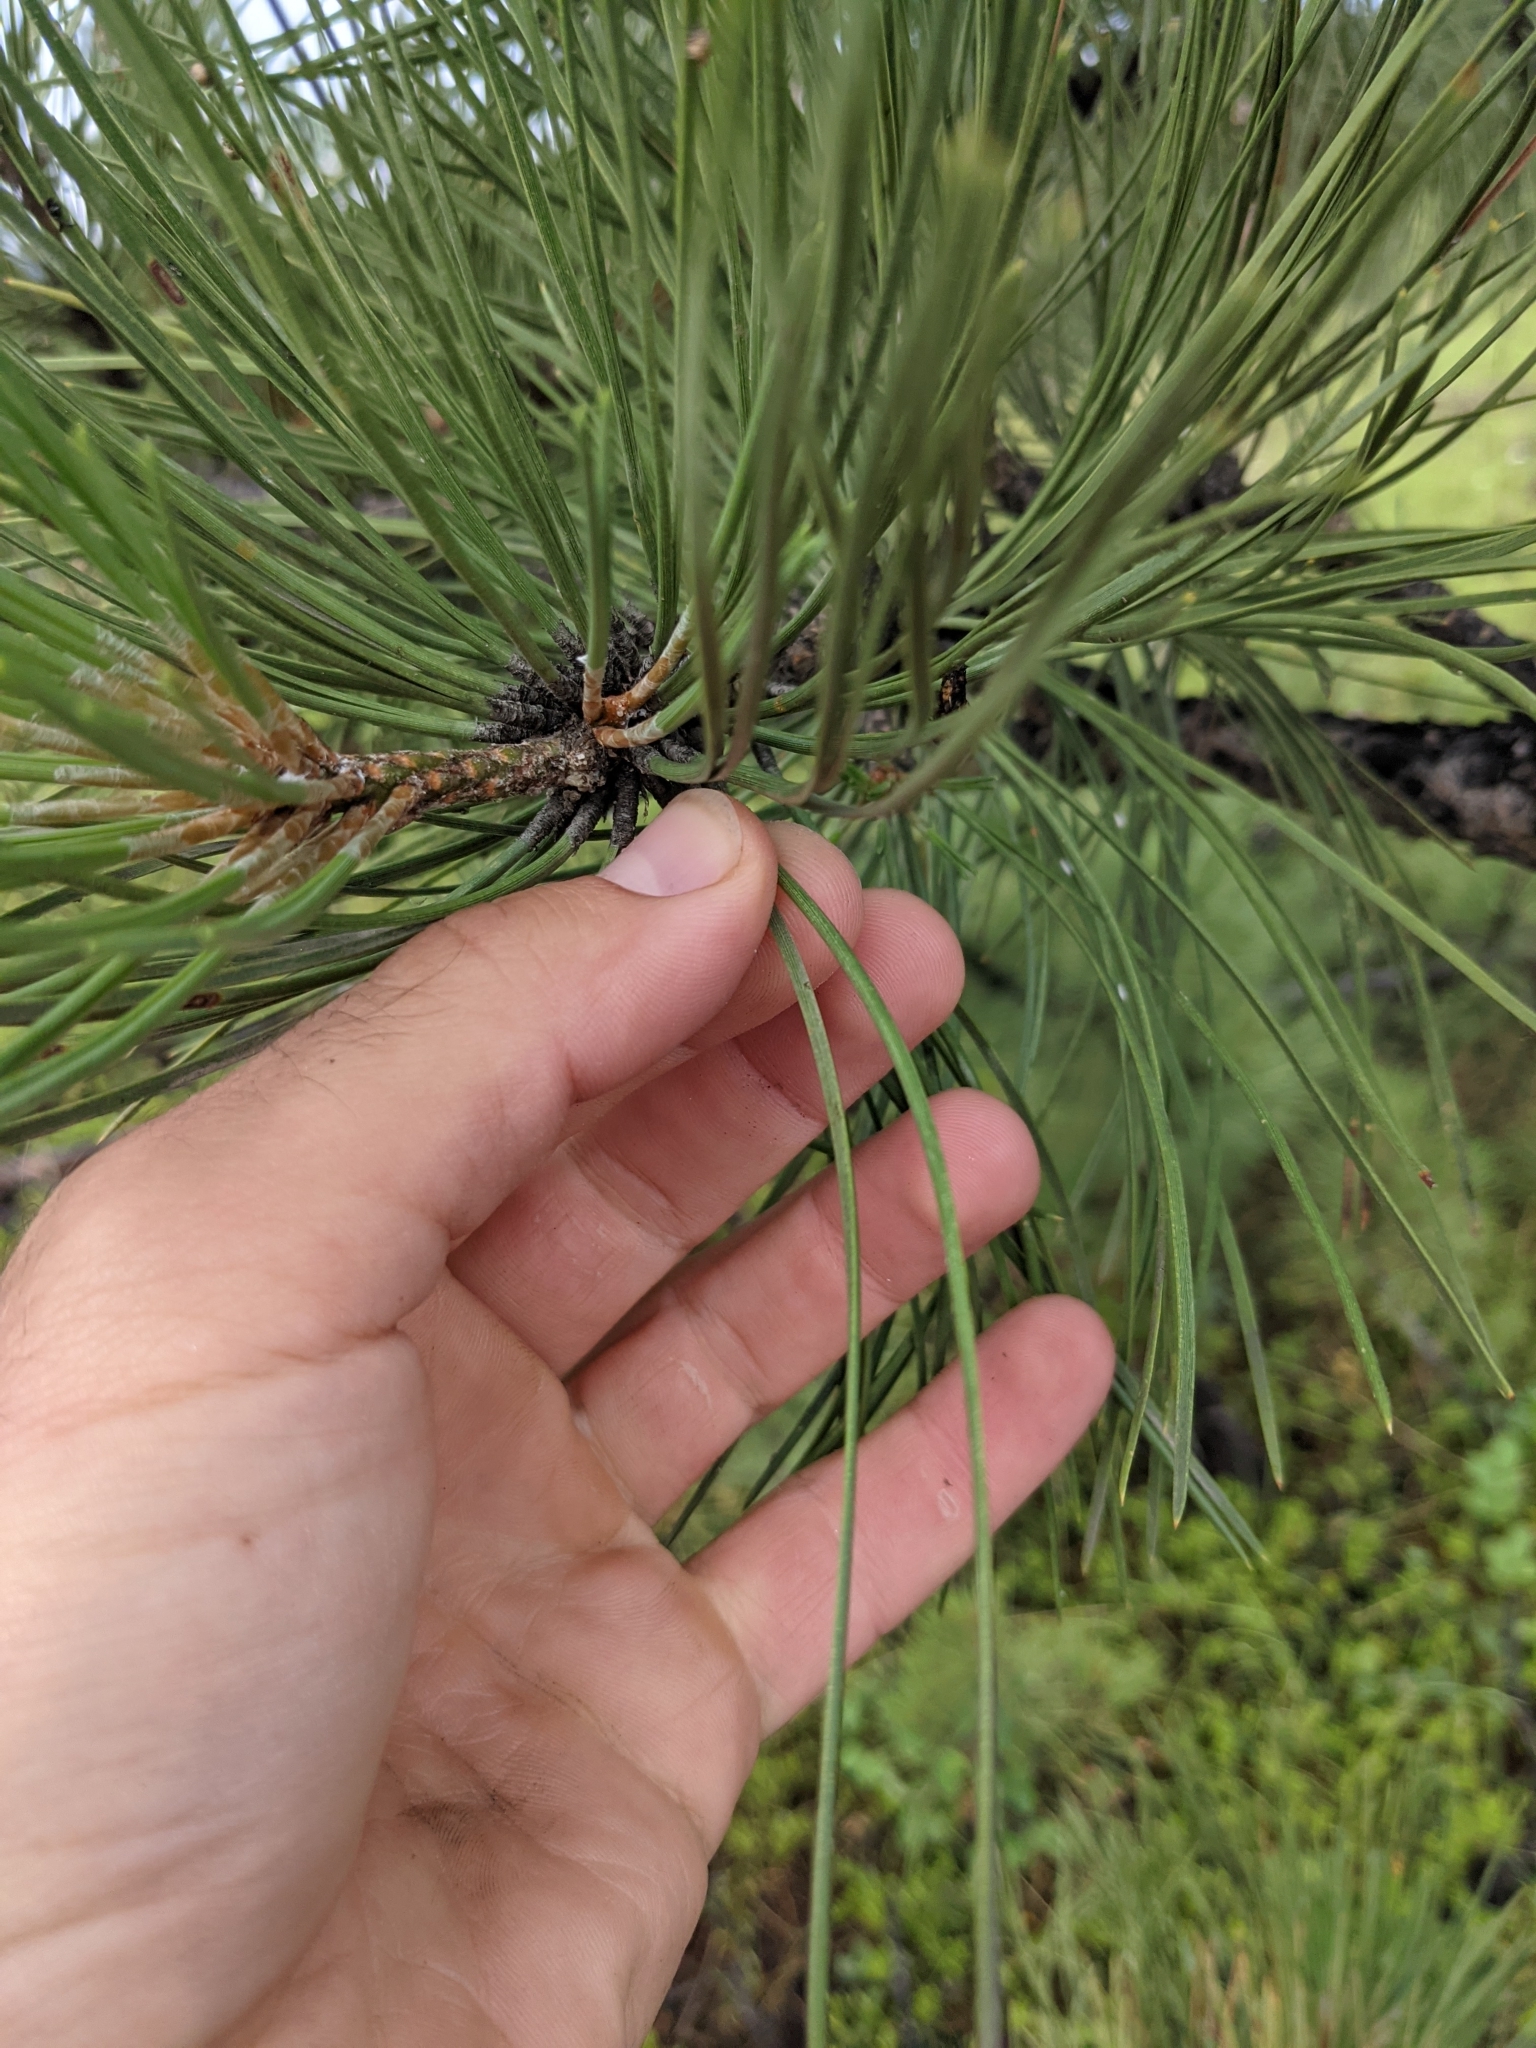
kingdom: Plantae
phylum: Tracheophyta
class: Pinopsida
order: Pinales
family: Pinaceae
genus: Pinus
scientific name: Pinus ponderosa
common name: Western yellow-pine
